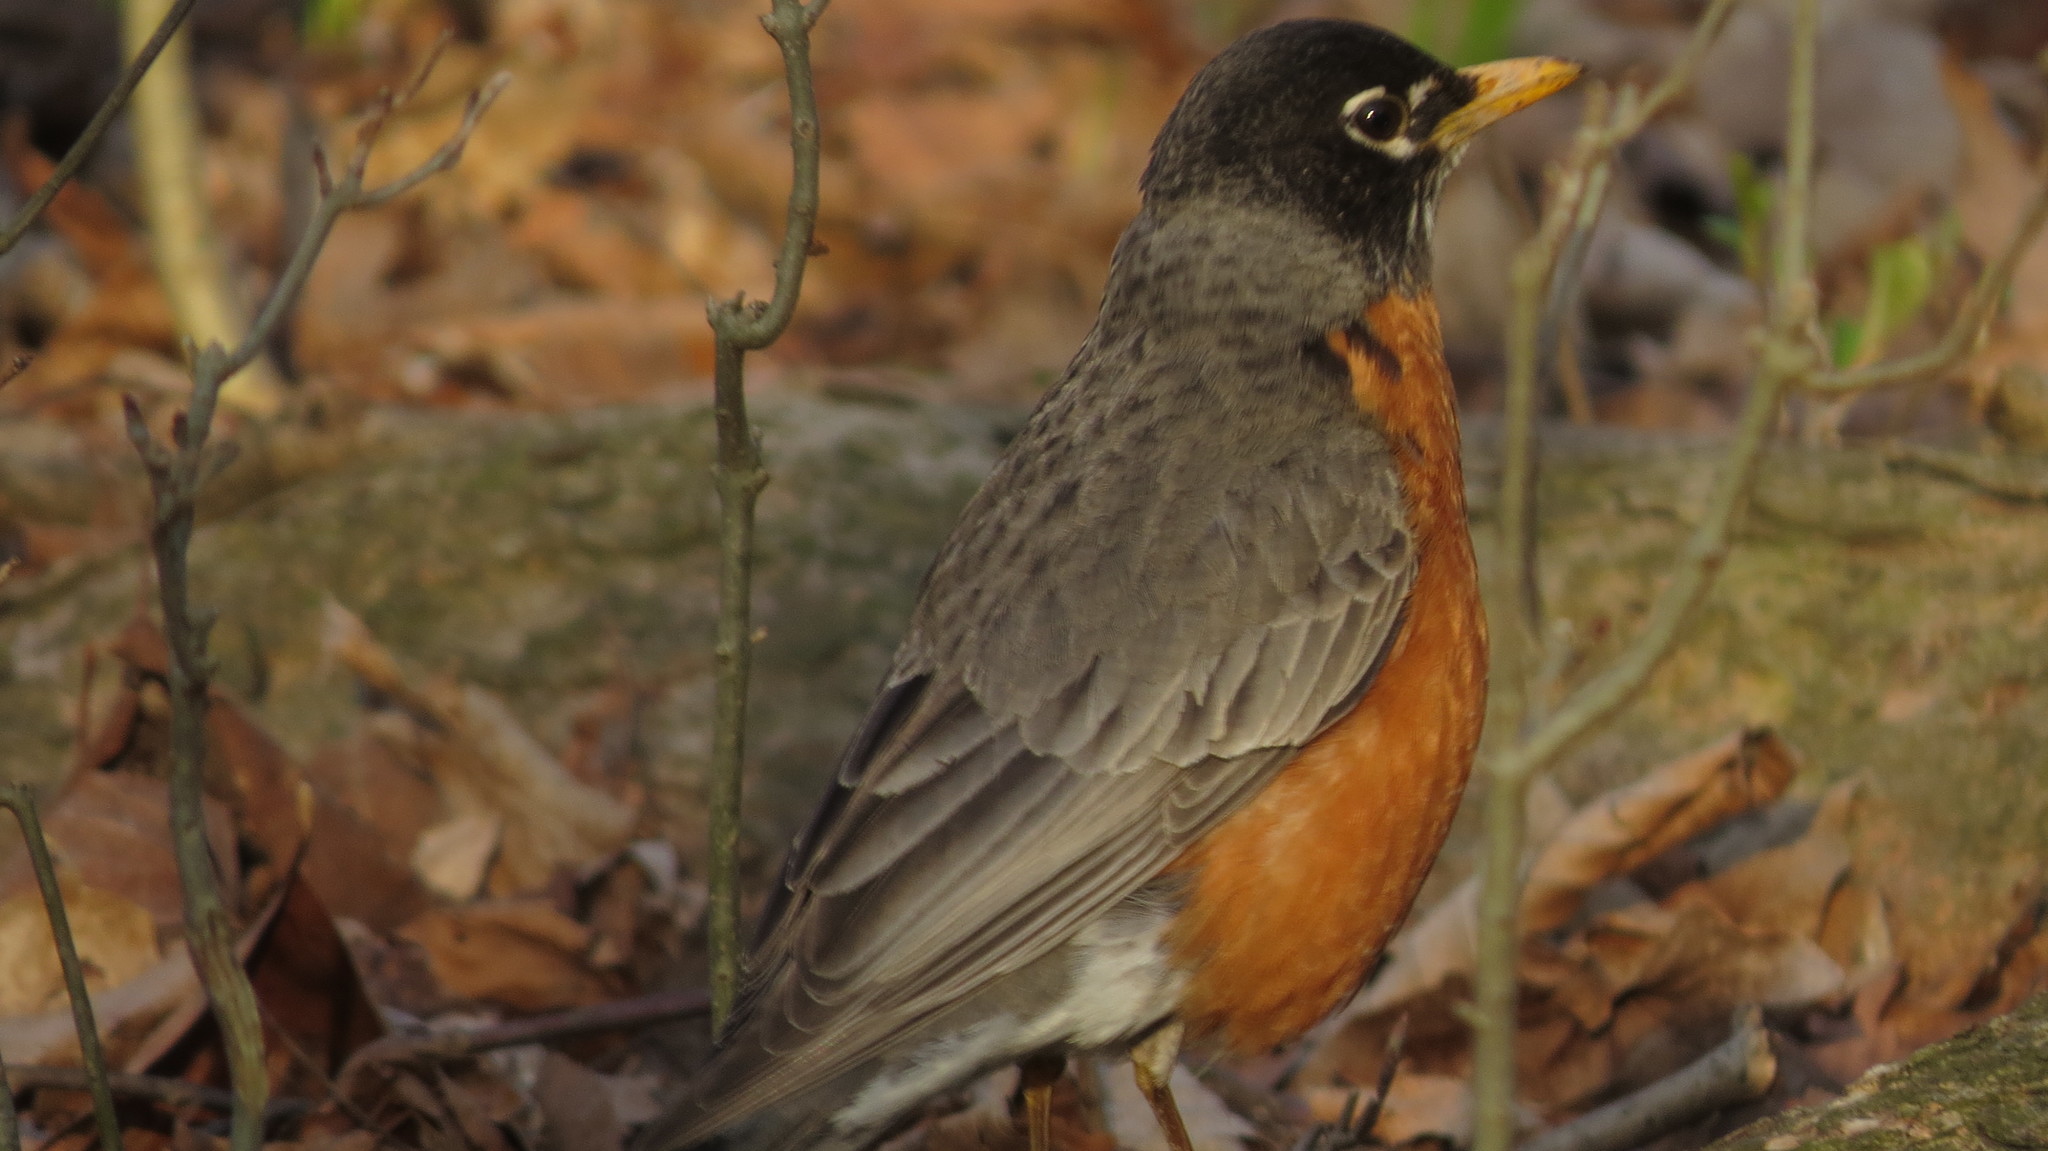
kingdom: Animalia
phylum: Chordata
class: Aves
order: Passeriformes
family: Turdidae
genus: Turdus
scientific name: Turdus migratorius
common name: American robin
